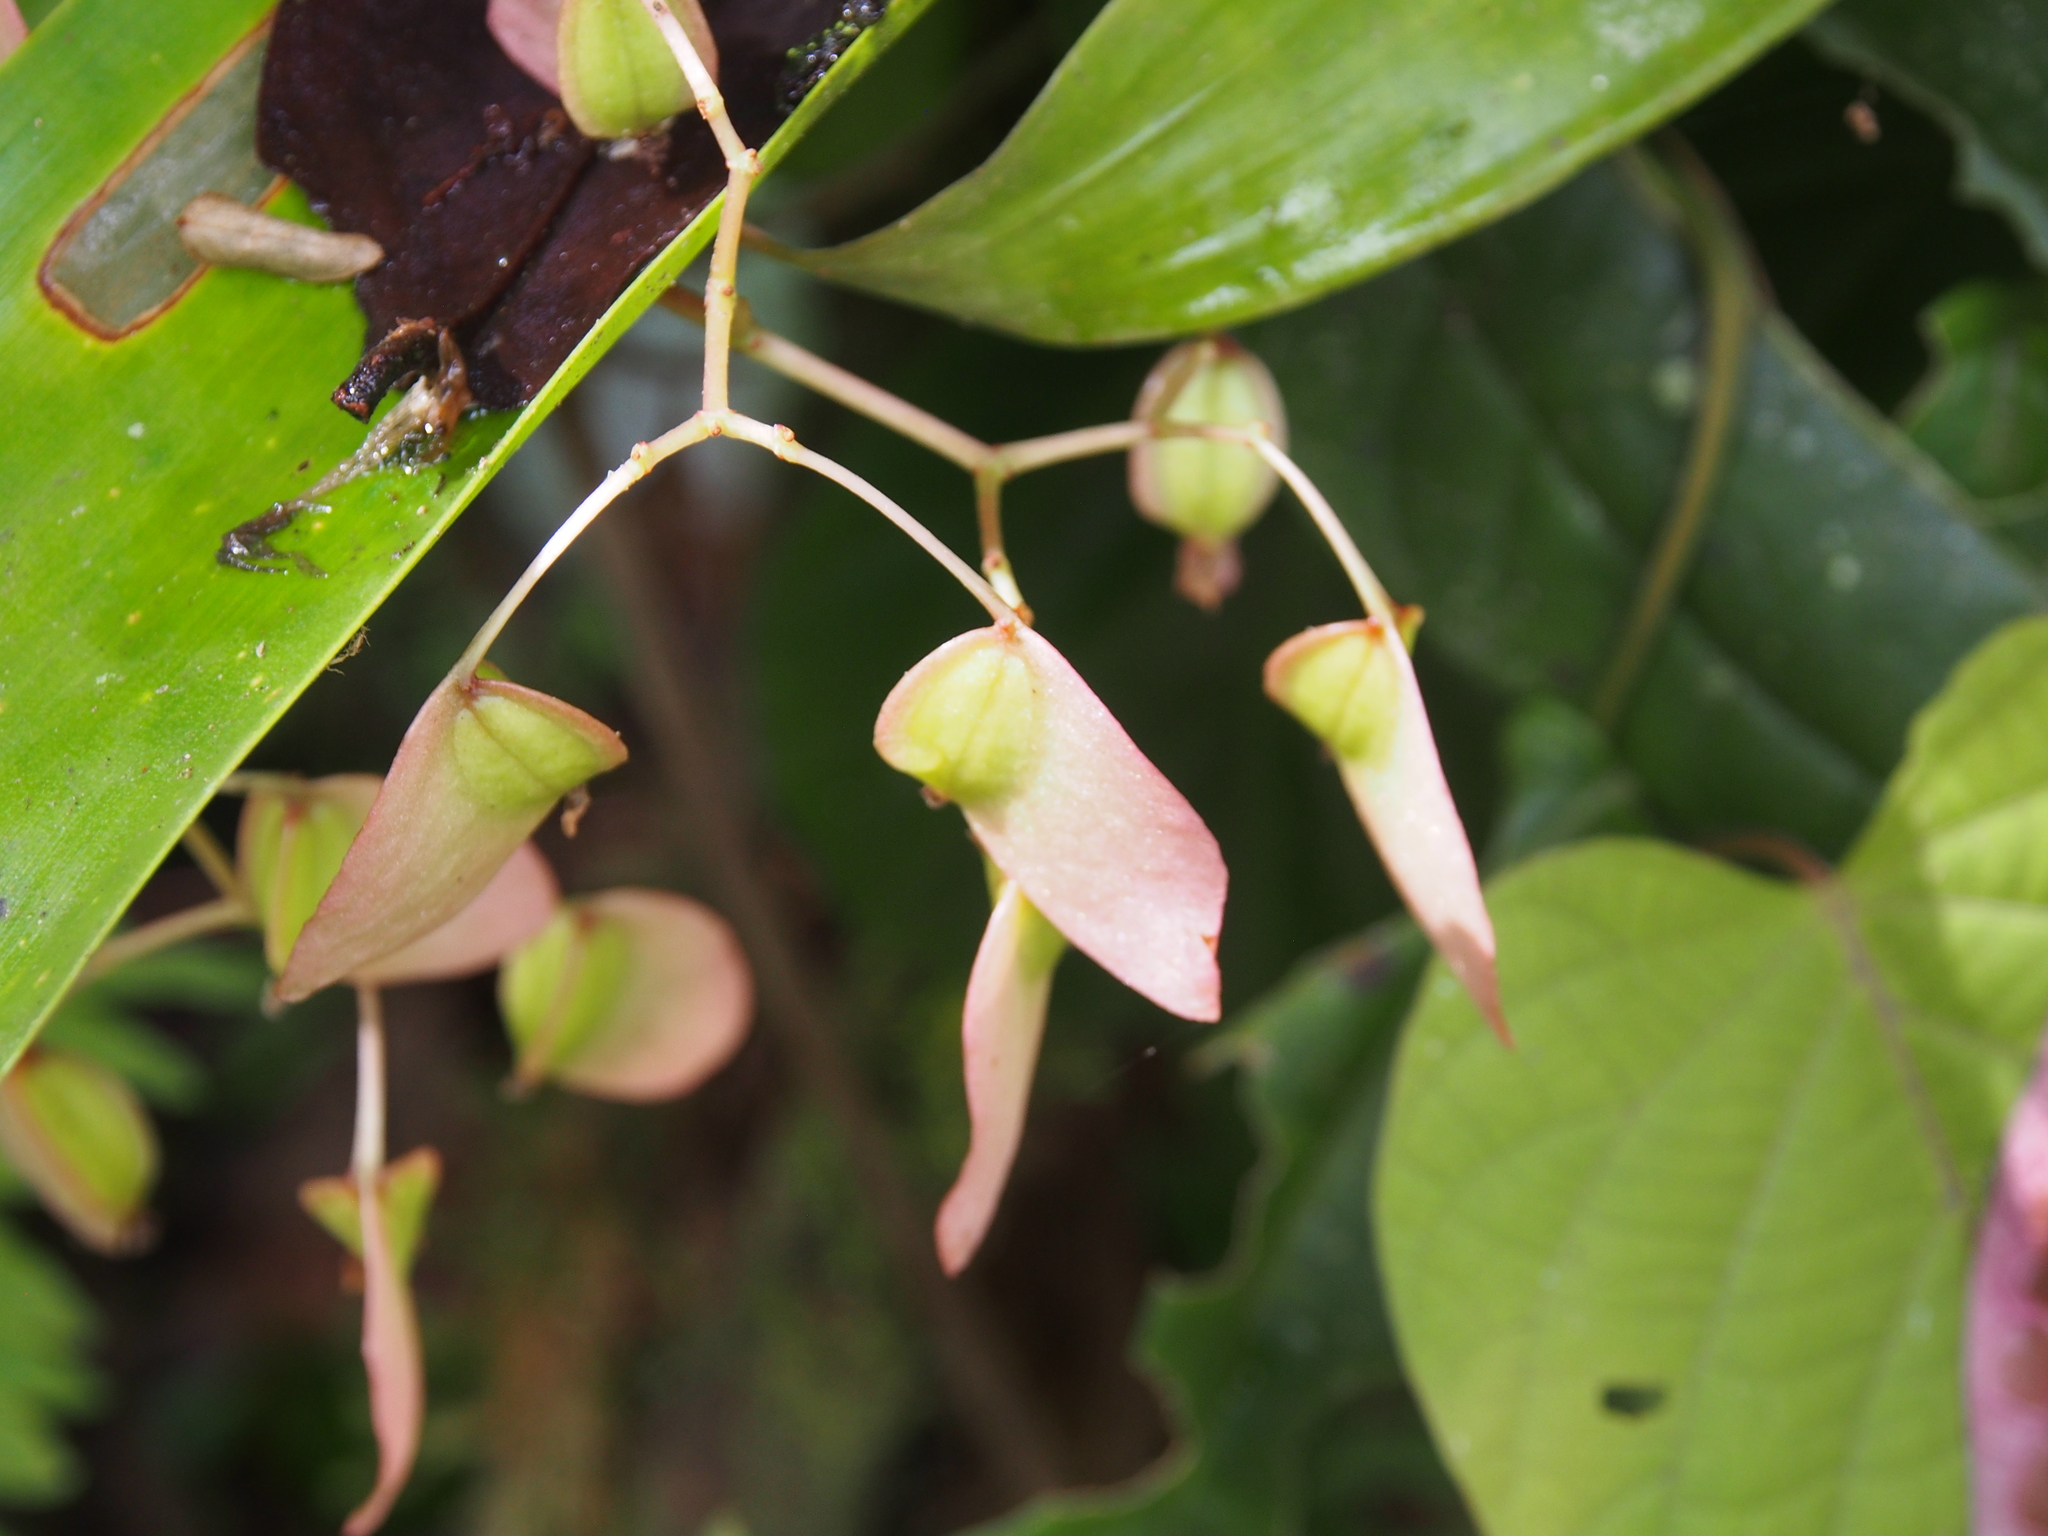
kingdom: Plantae
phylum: Tracheophyta
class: Magnoliopsida
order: Cucurbitales
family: Begoniaceae
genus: Begonia
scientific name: Begonia glabra
